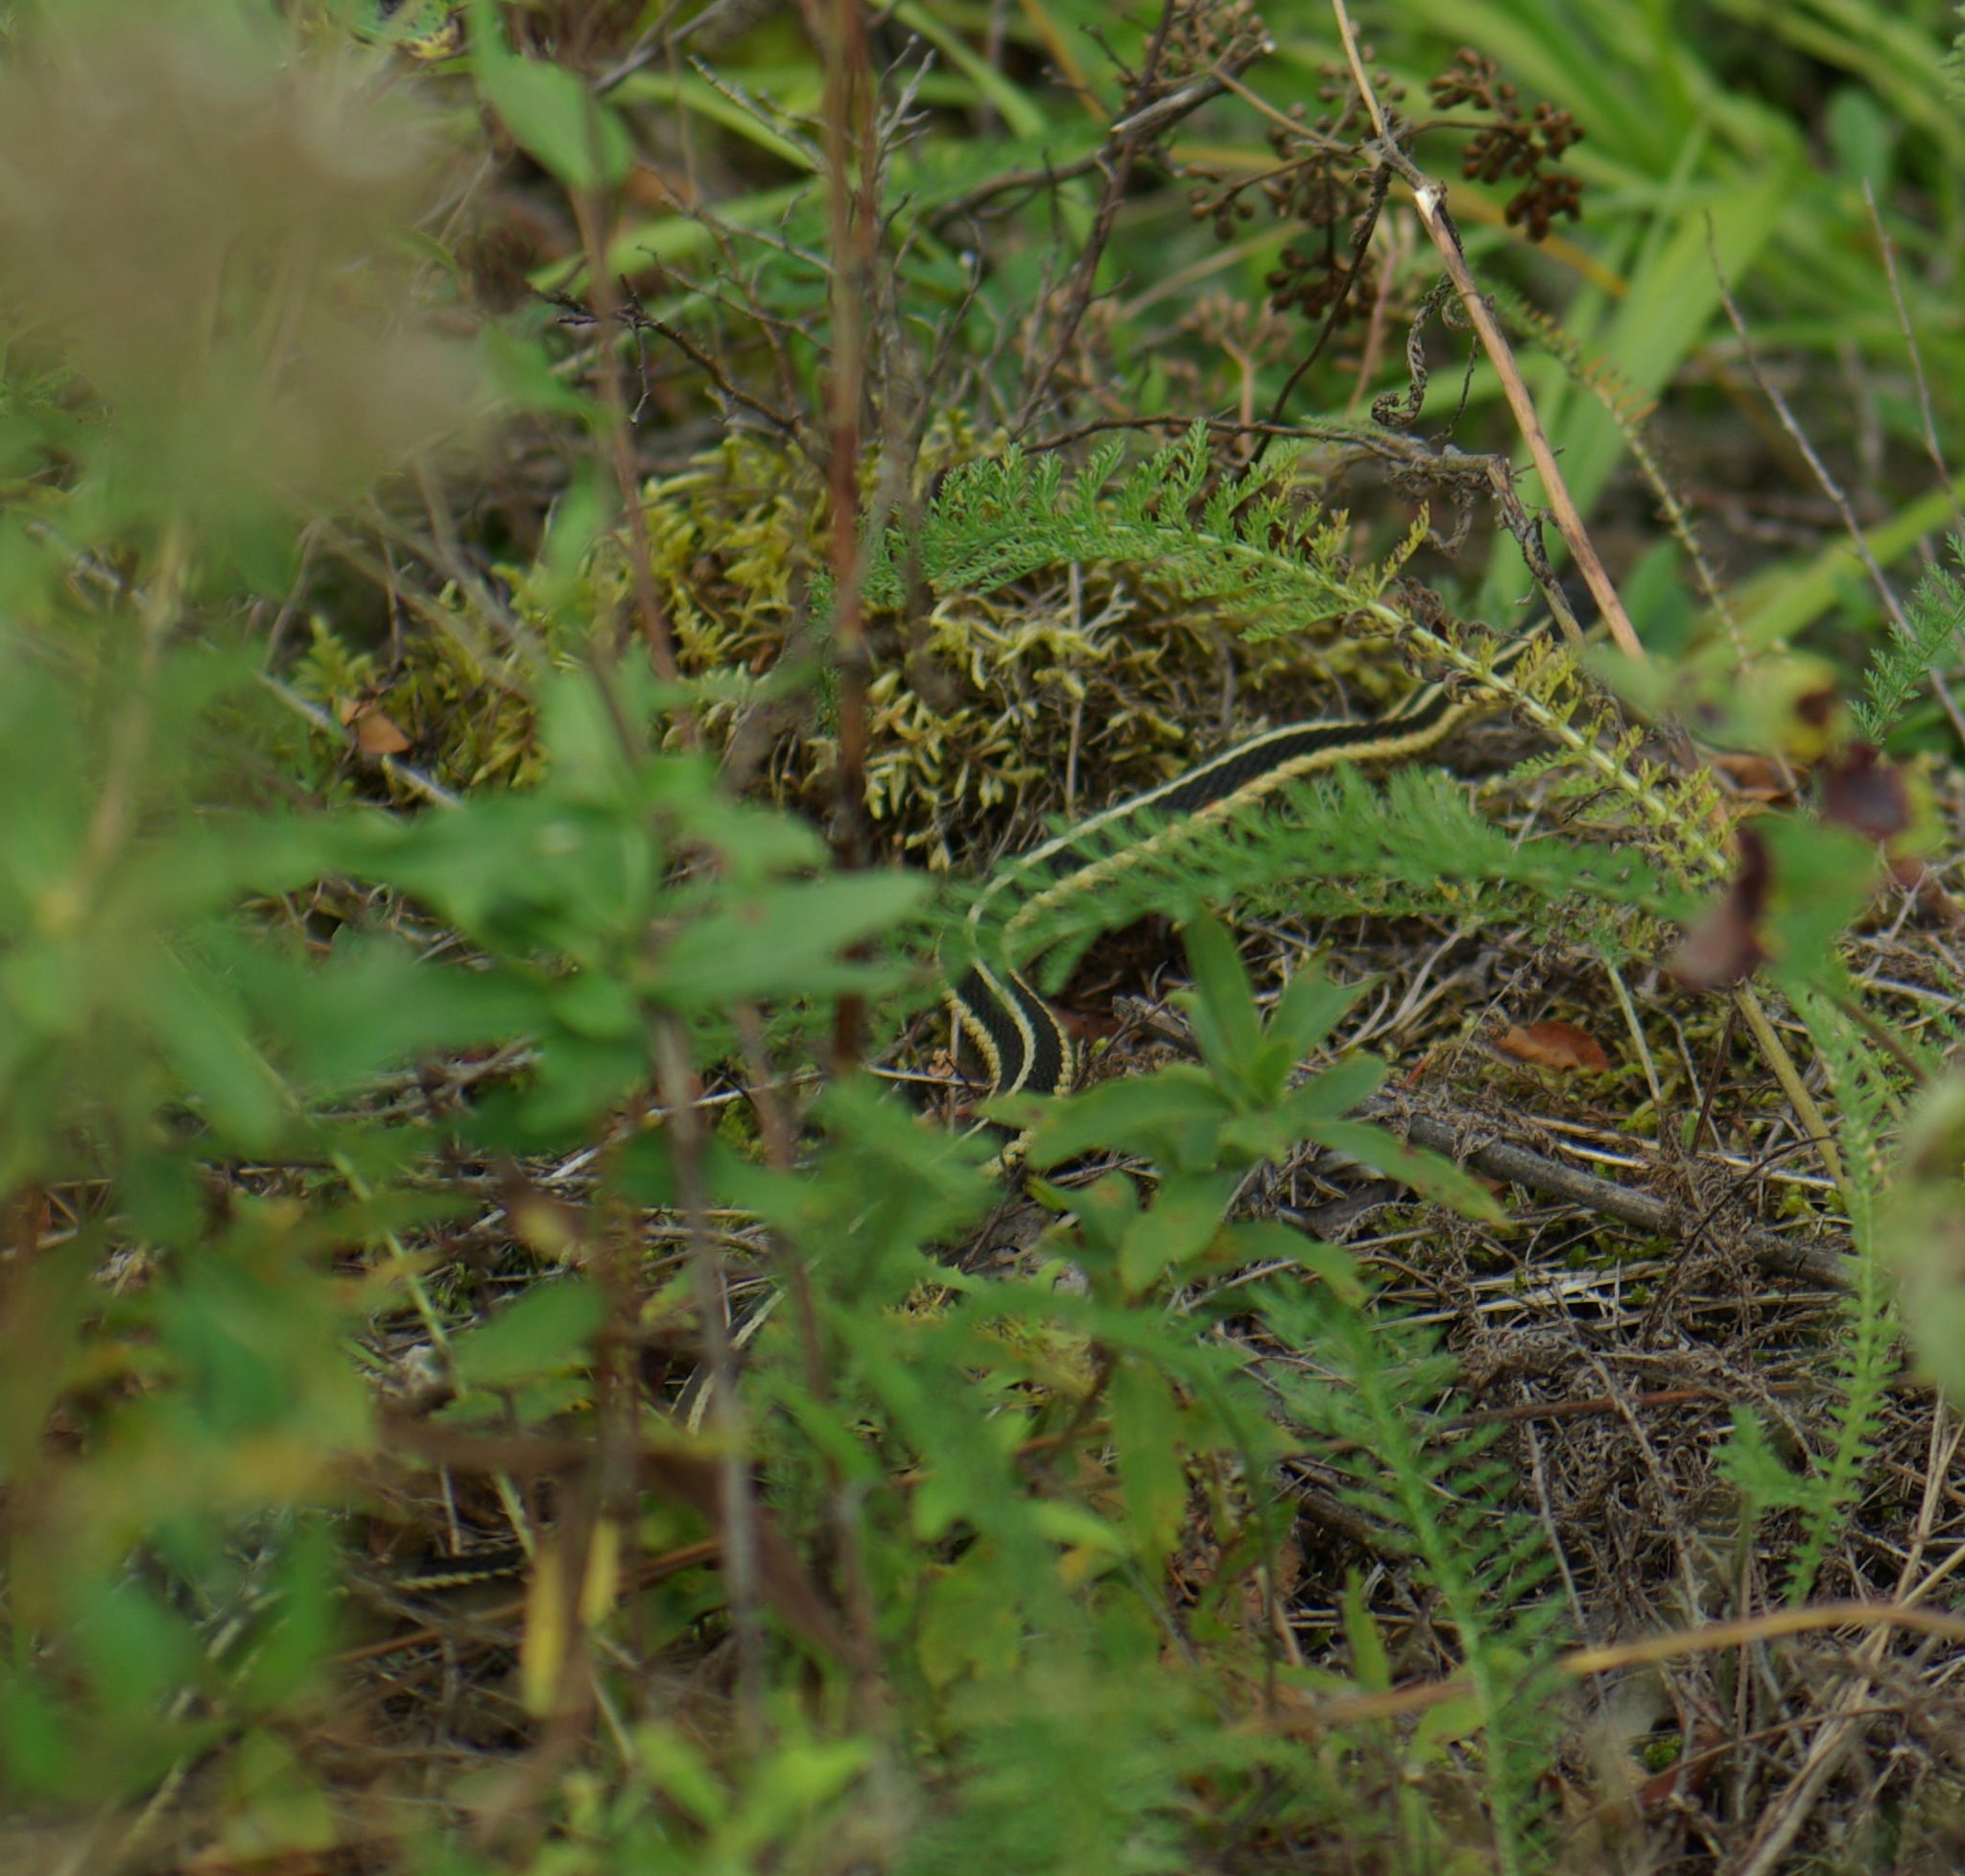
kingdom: Animalia
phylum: Chordata
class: Squamata
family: Colubridae
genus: Thamnophis
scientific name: Thamnophis sirtalis
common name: Common garter snake
